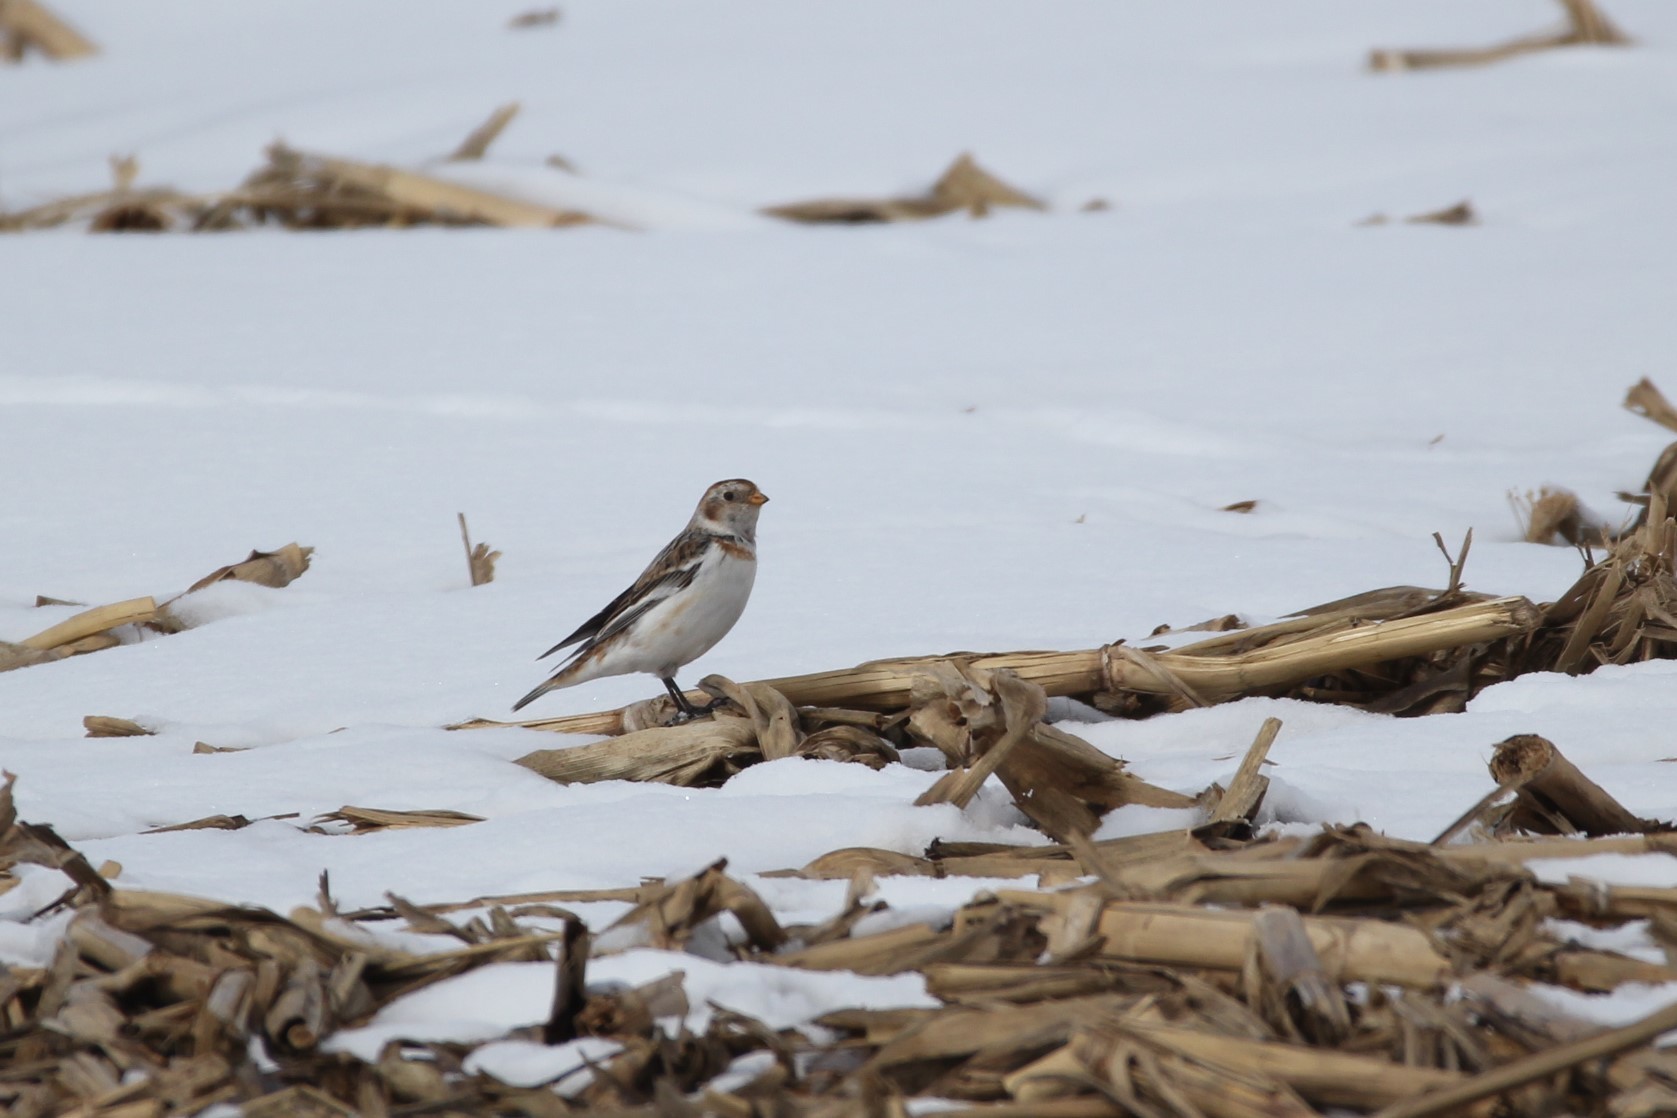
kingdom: Animalia
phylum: Chordata
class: Aves
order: Passeriformes
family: Calcariidae
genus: Plectrophenax
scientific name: Plectrophenax nivalis
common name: Snow bunting
